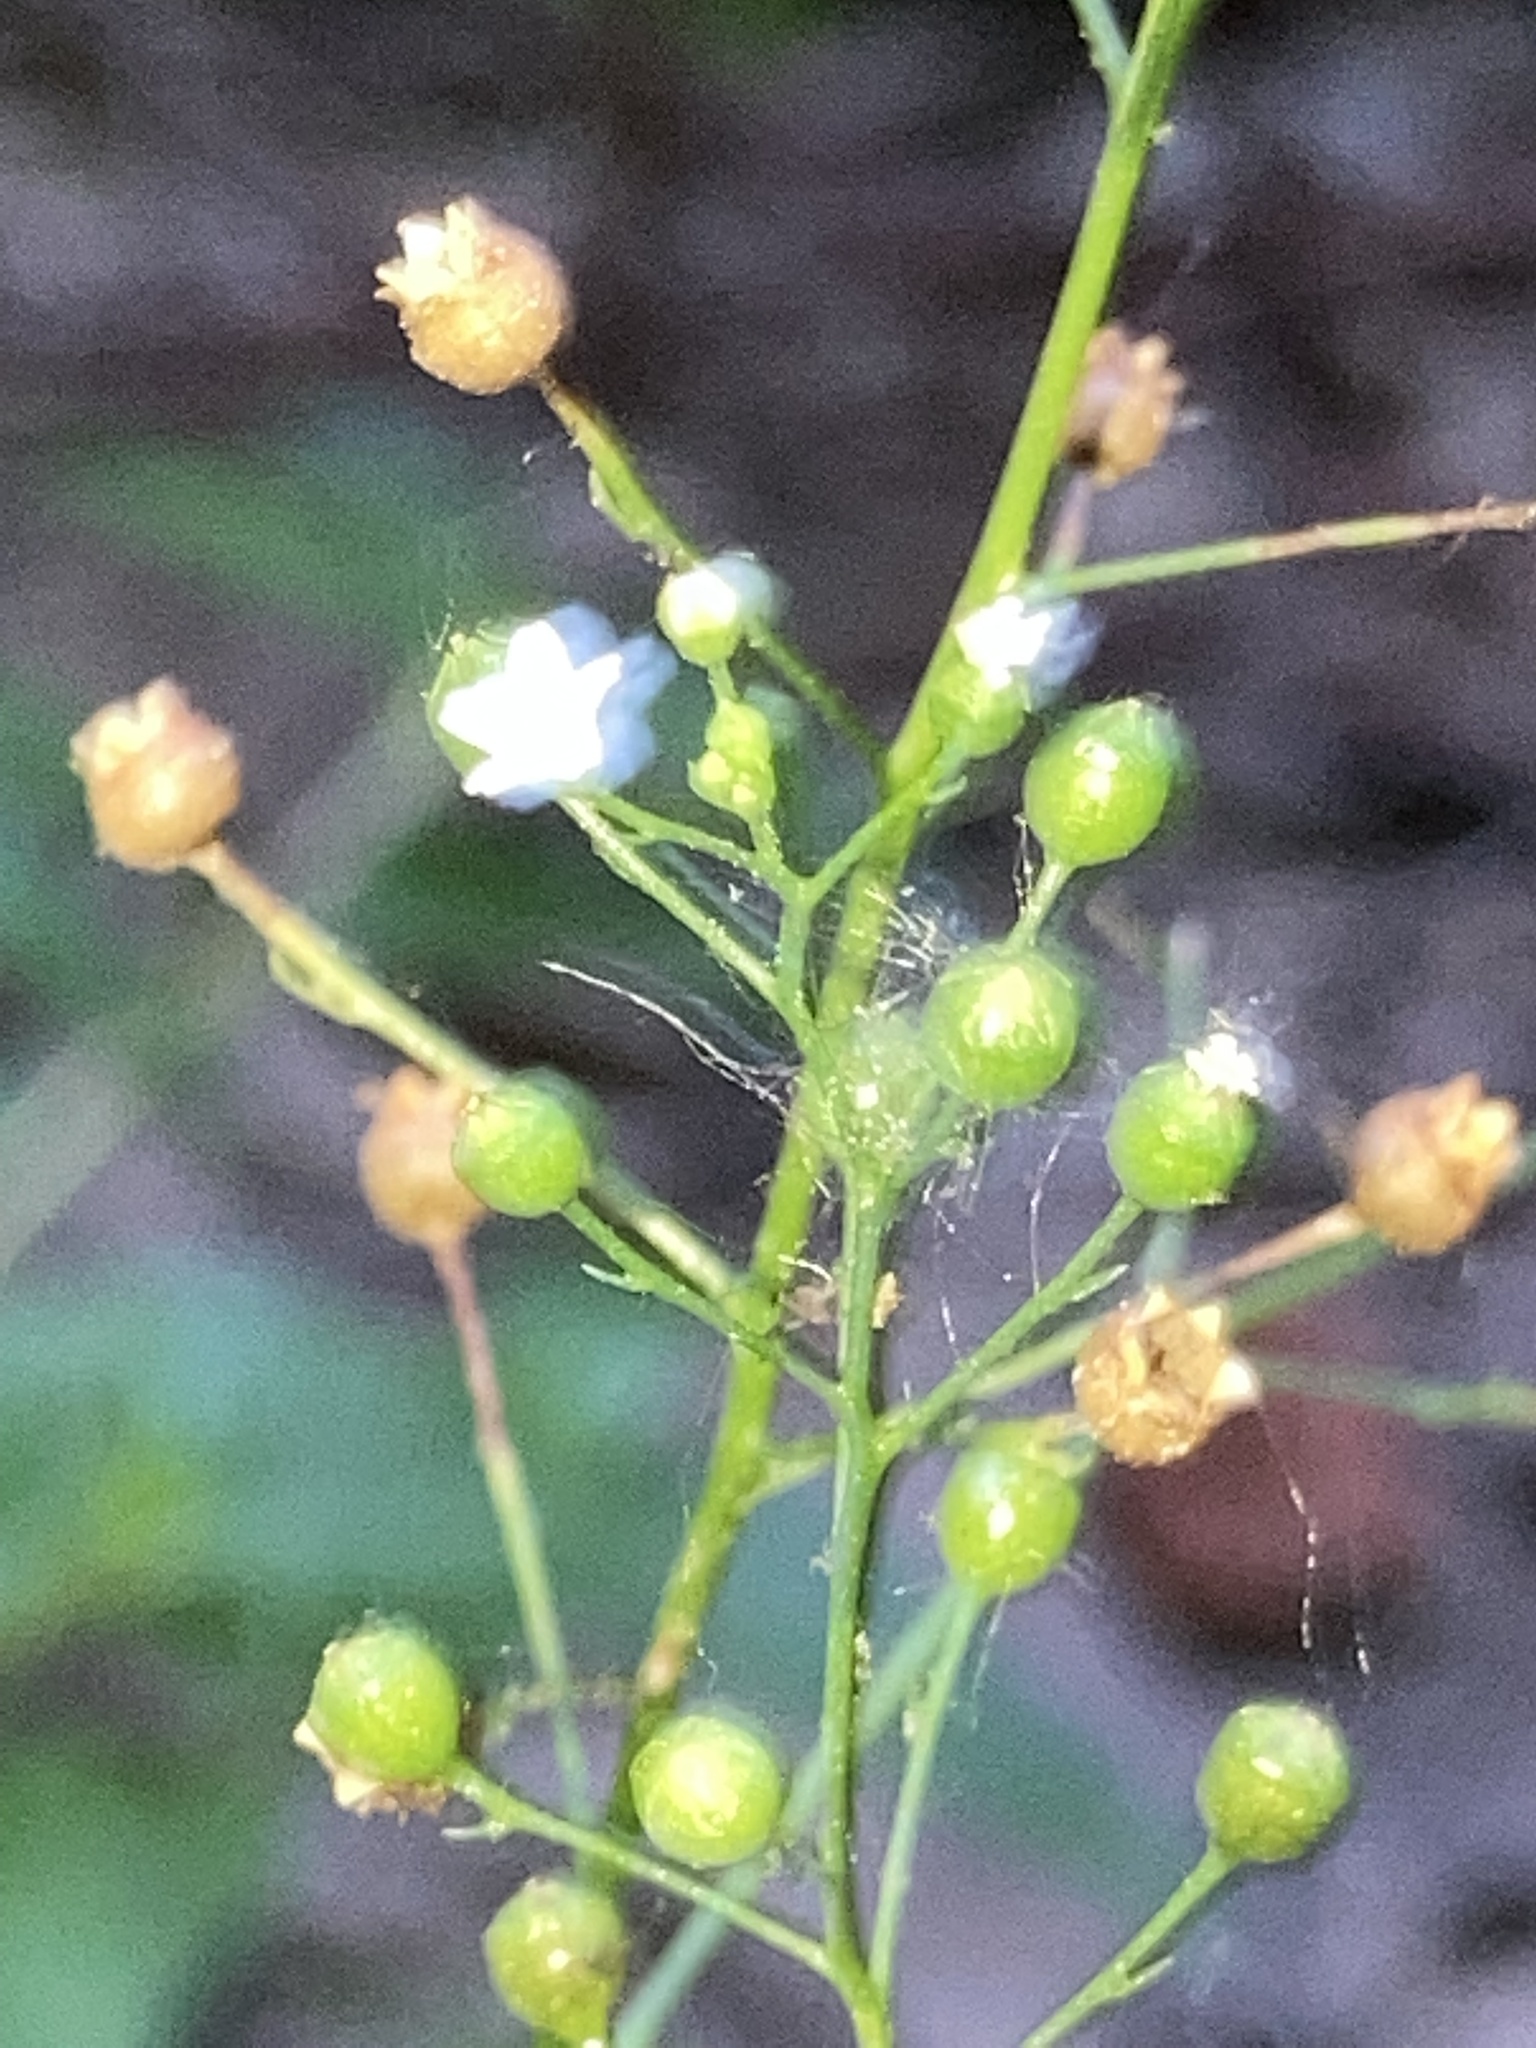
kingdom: Plantae
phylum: Tracheophyta
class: Magnoliopsida
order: Ericales
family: Primulaceae
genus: Samolus
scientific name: Samolus parviflorus
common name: False water pimpernel
